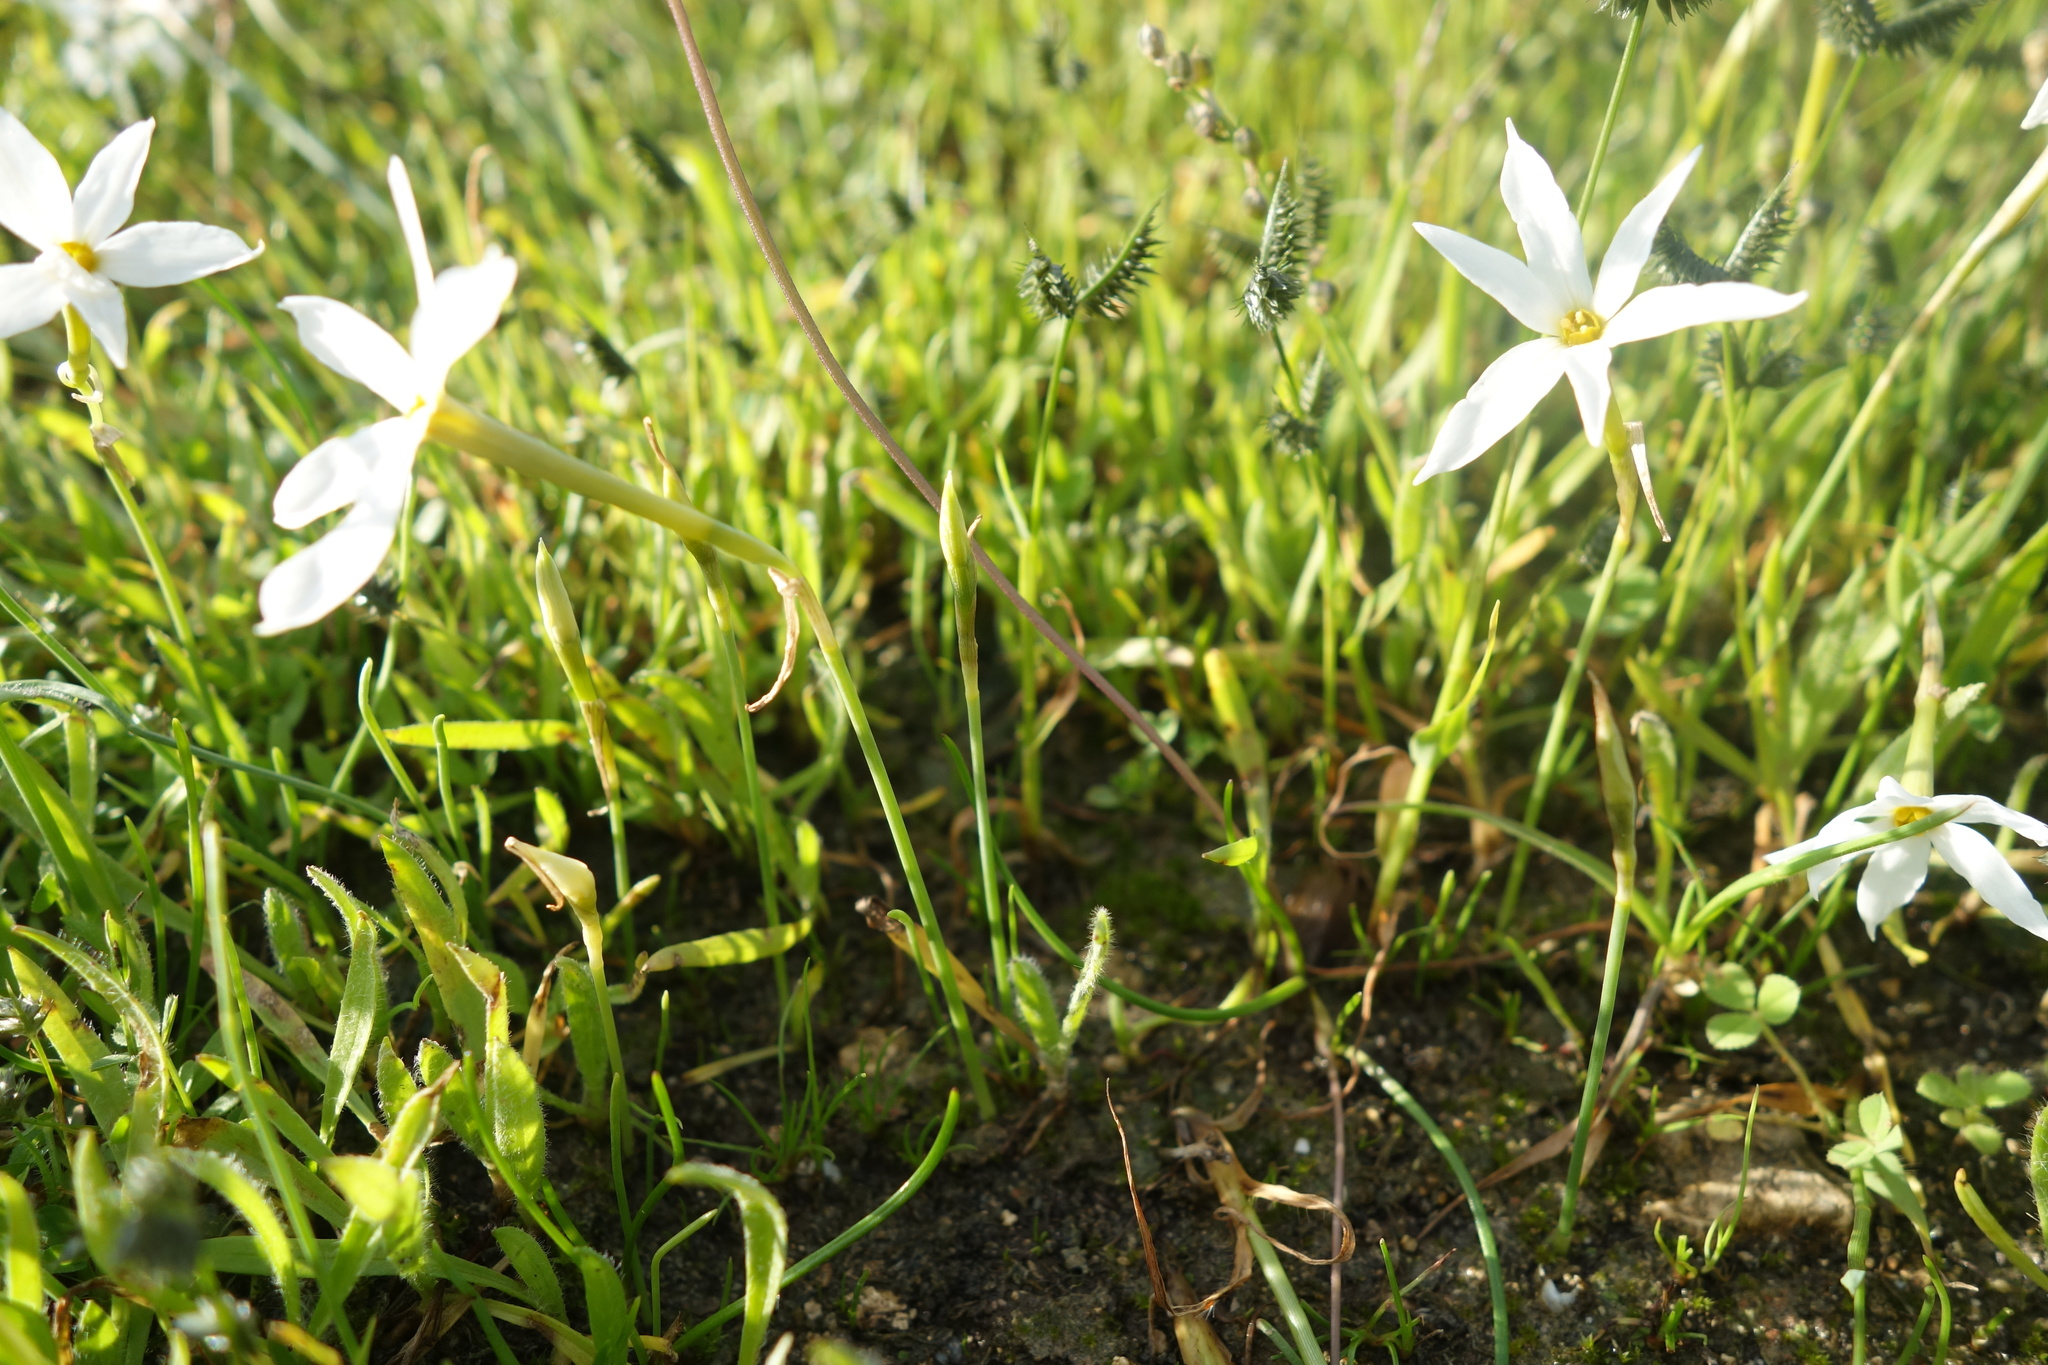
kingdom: Plantae
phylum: Tracheophyta
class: Liliopsida
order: Asparagales
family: Amaryllidaceae
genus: Narcissus
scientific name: Narcissus deficiens
